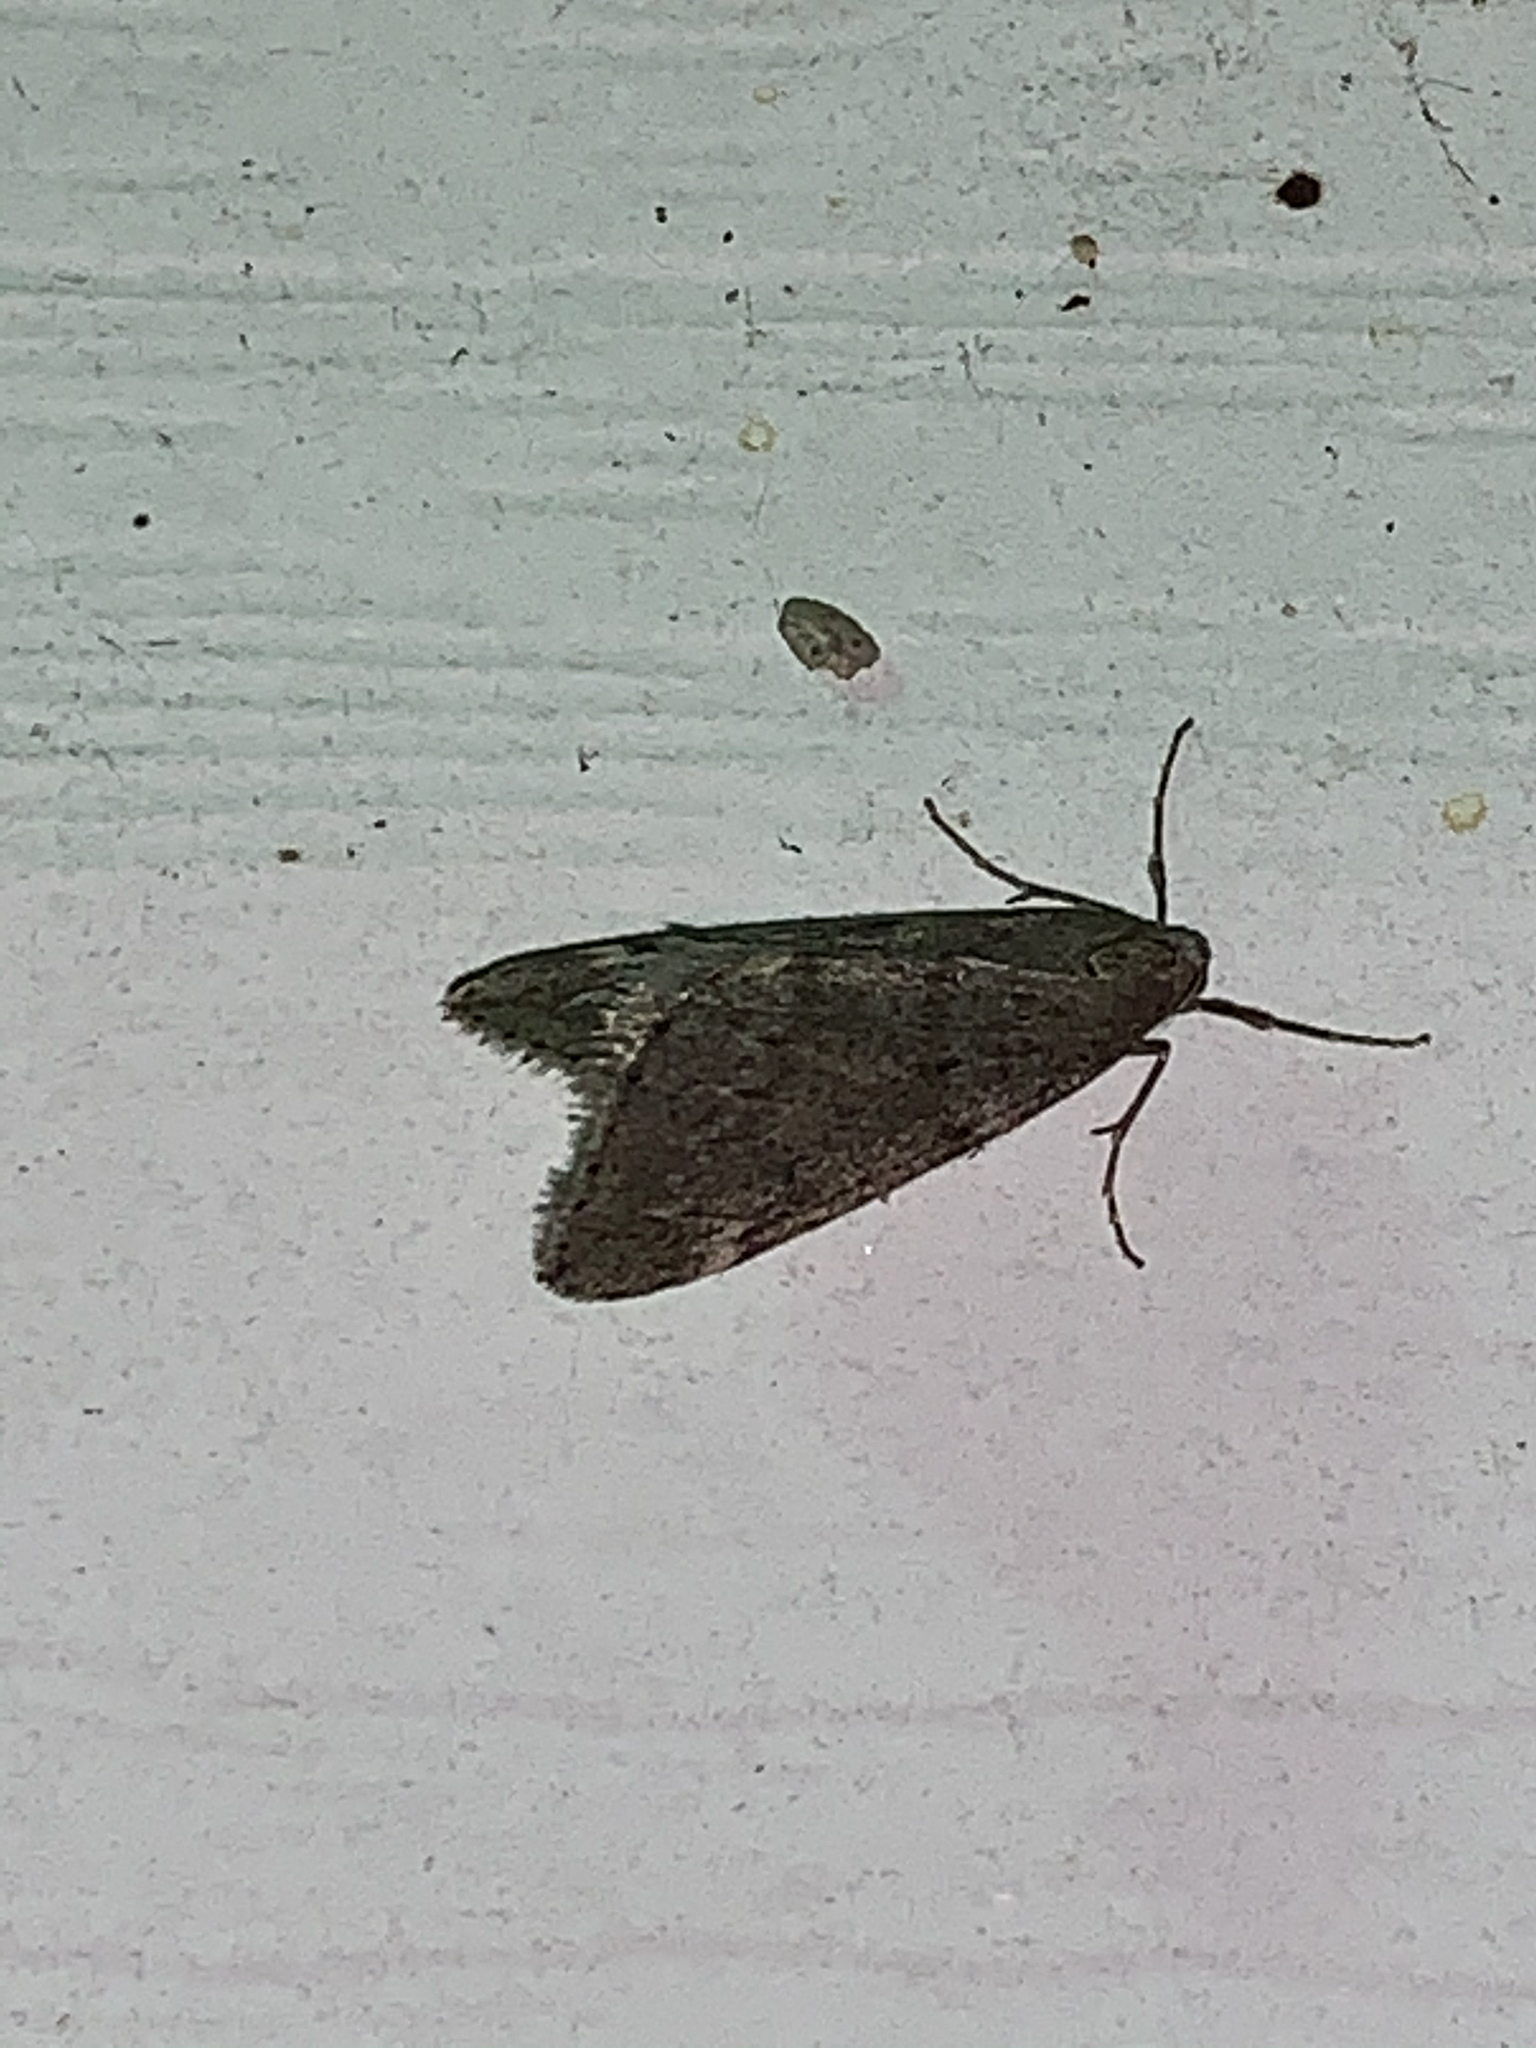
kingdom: Animalia
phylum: Arthropoda
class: Insecta
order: Lepidoptera
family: Geometridae
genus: Alsophila
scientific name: Alsophila pometaria
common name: Fall cankerworm
